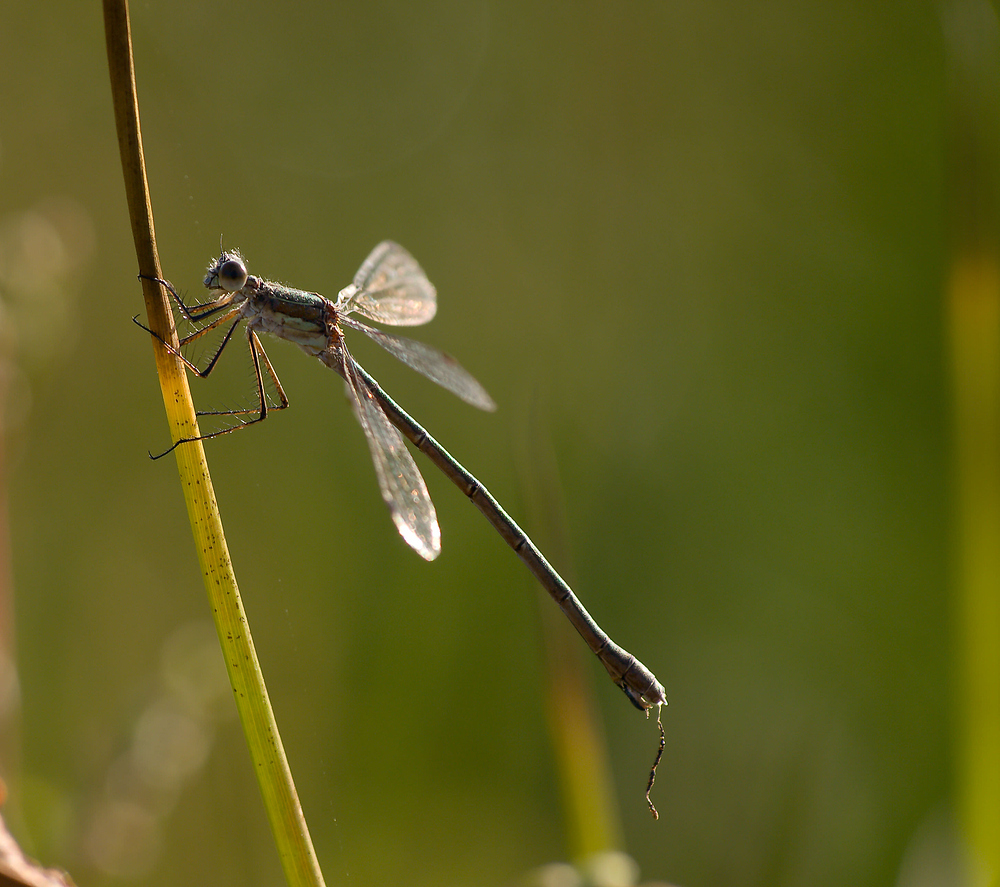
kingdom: Animalia
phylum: Arthropoda
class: Insecta
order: Odonata
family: Lestidae
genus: Lestes
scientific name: Lestes sponsa
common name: Common spreadwing
